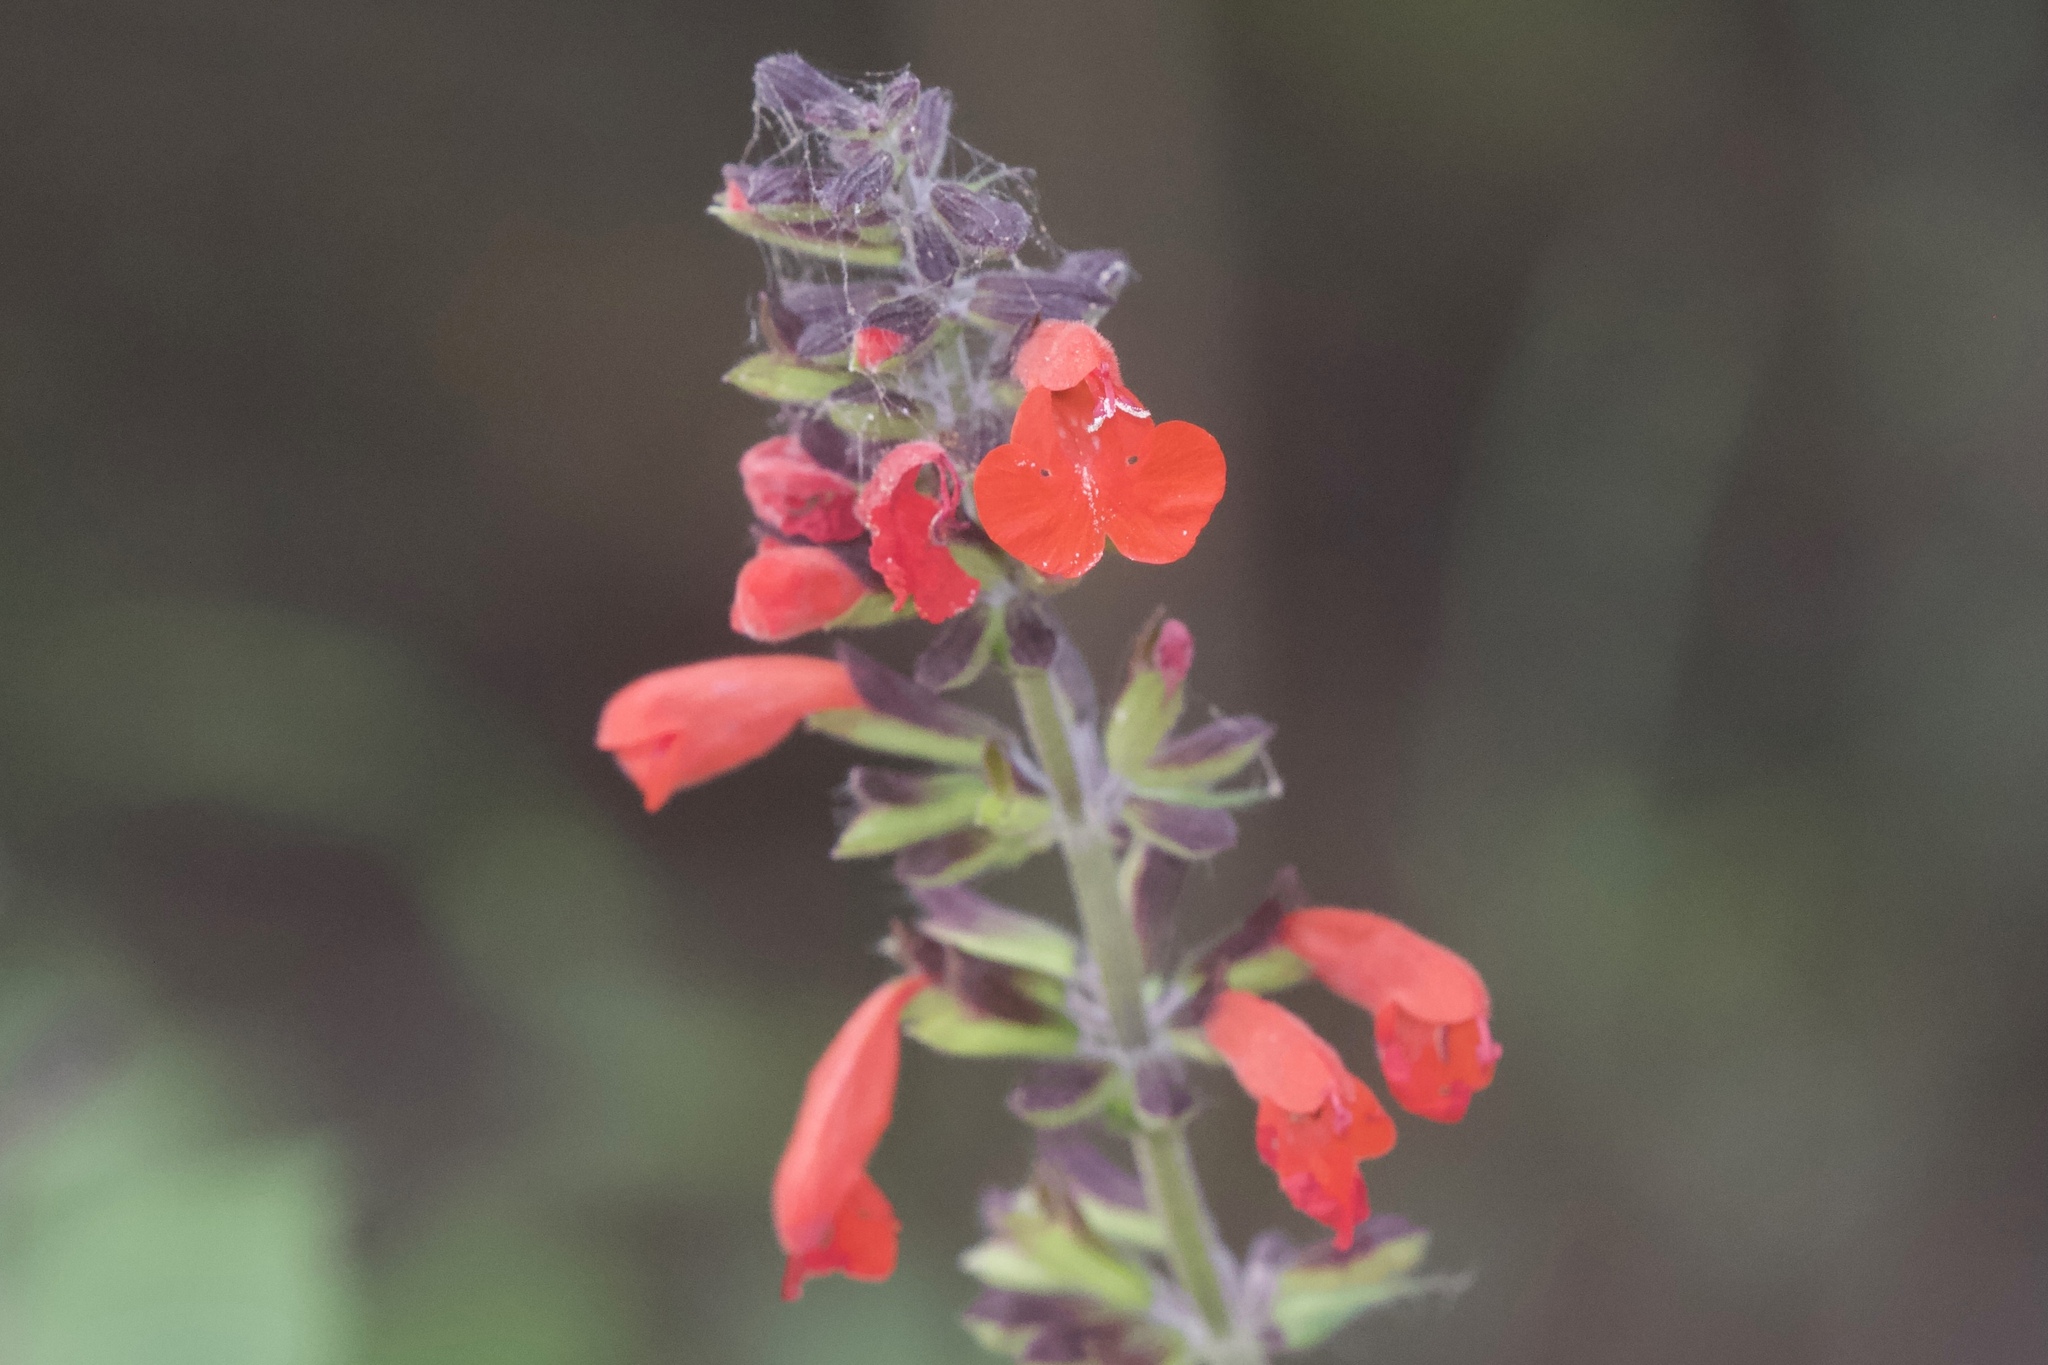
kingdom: Plantae
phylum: Tracheophyta
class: Magnoliopsida
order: Lamiales
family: Lamiaceae
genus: Salvia
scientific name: Salvia coccinea
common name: Blood sage
